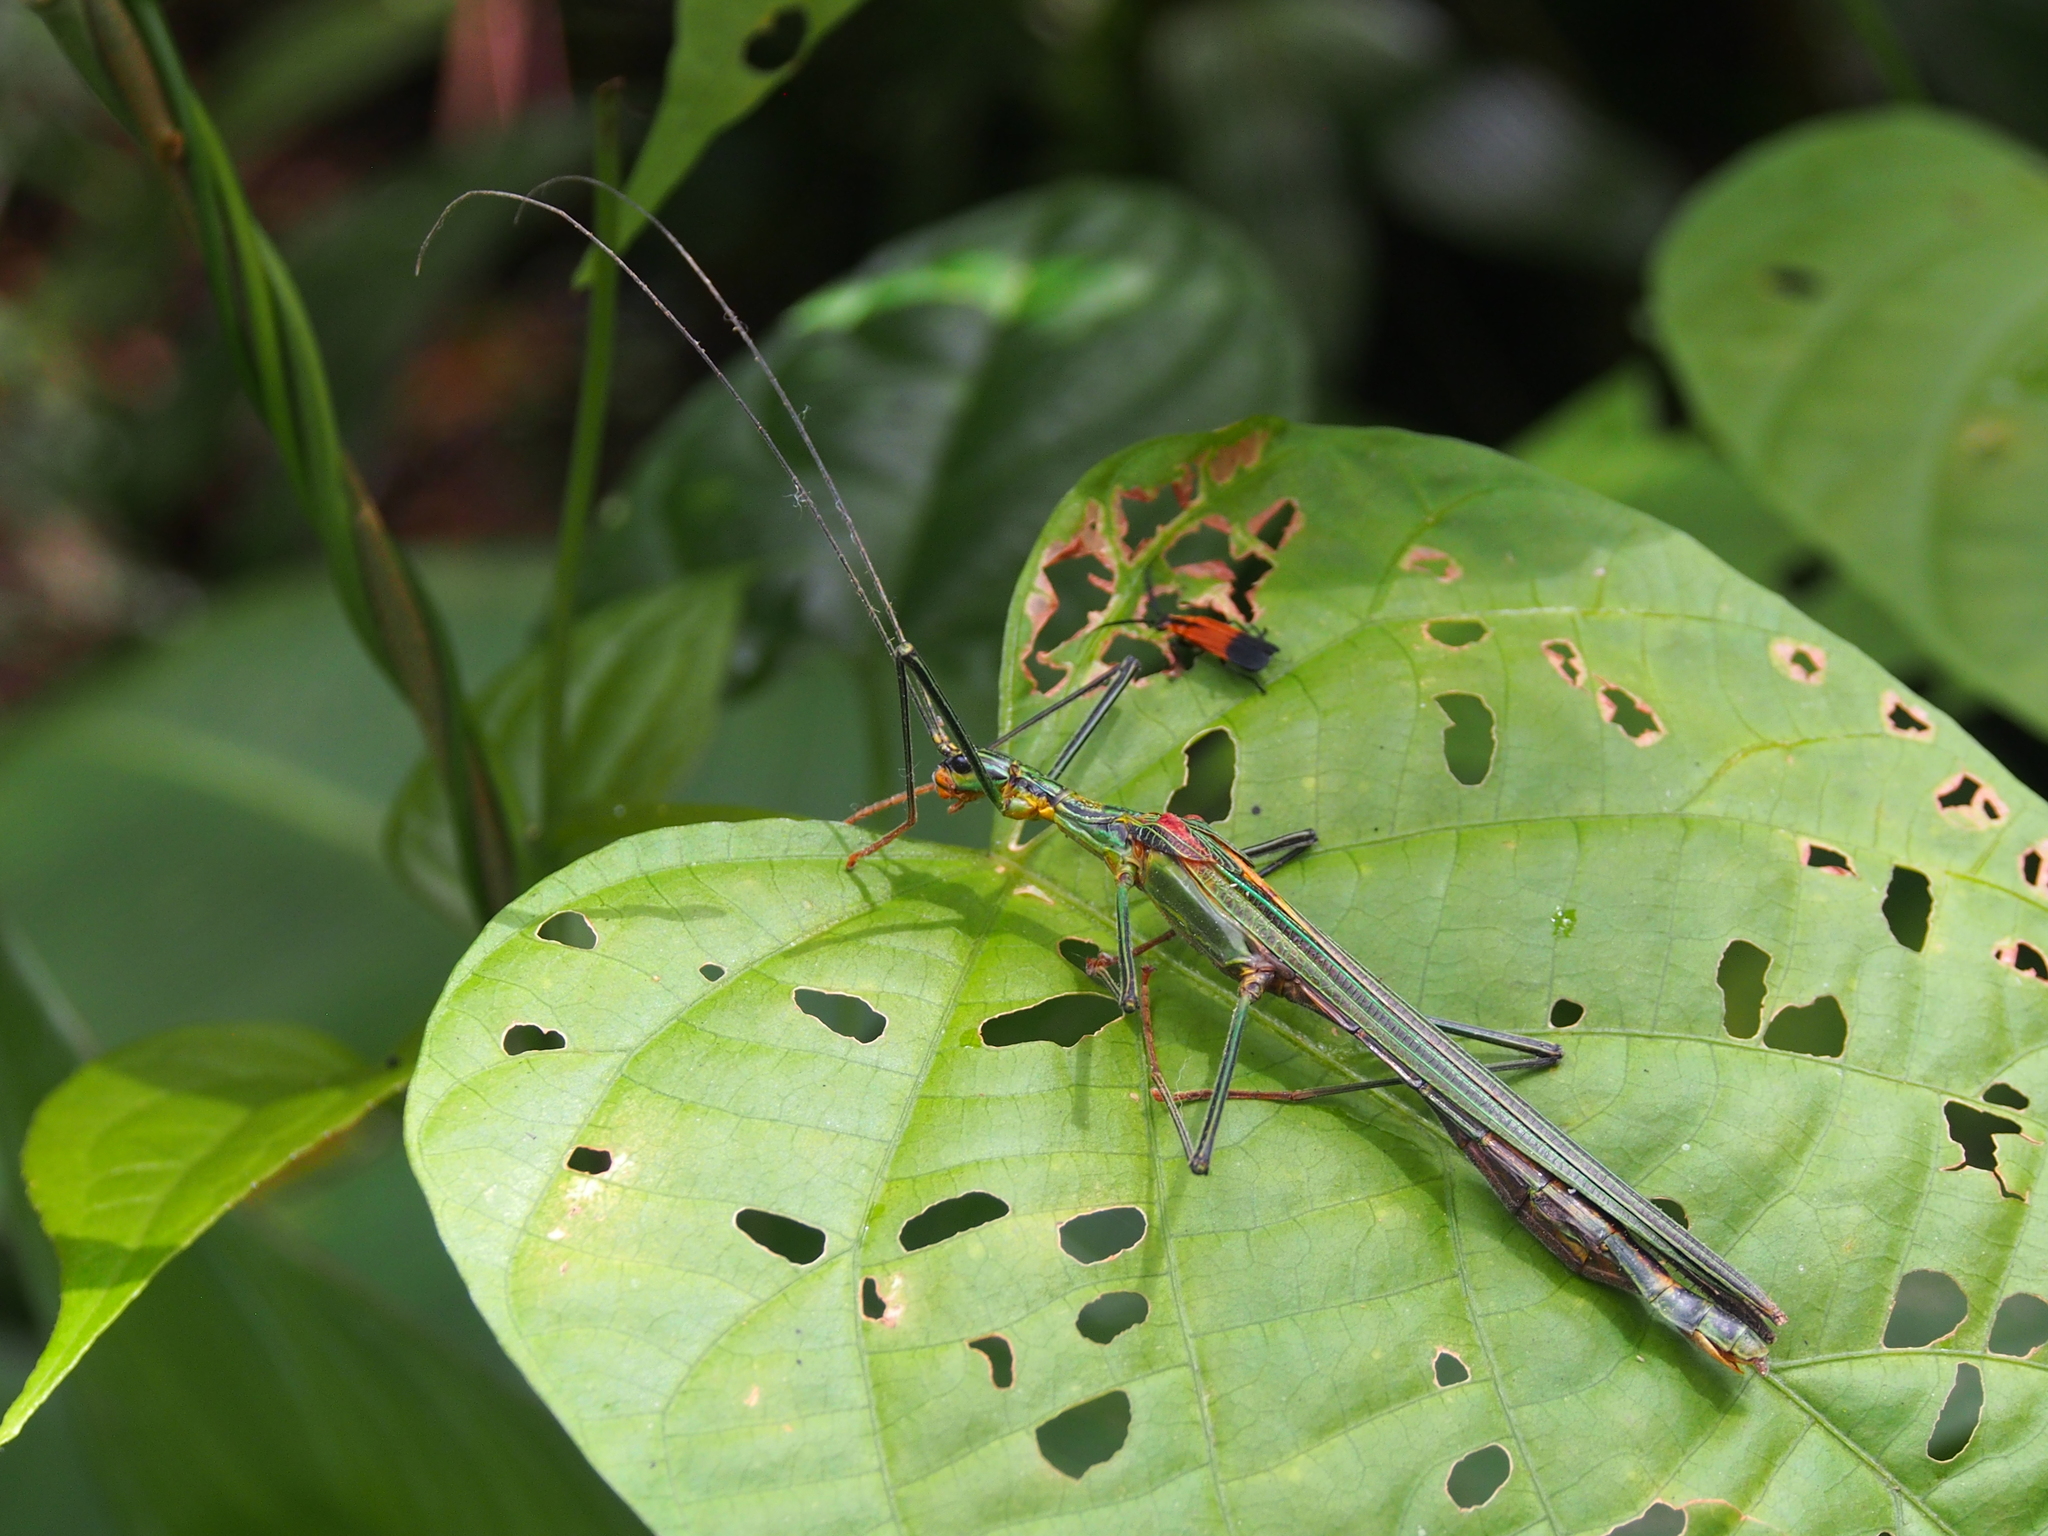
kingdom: Animalia
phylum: Arthropoda
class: Insecta
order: Phasmida
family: Pseudophasmatidae
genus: Parastratocles
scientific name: Parastratocles multilineatus
